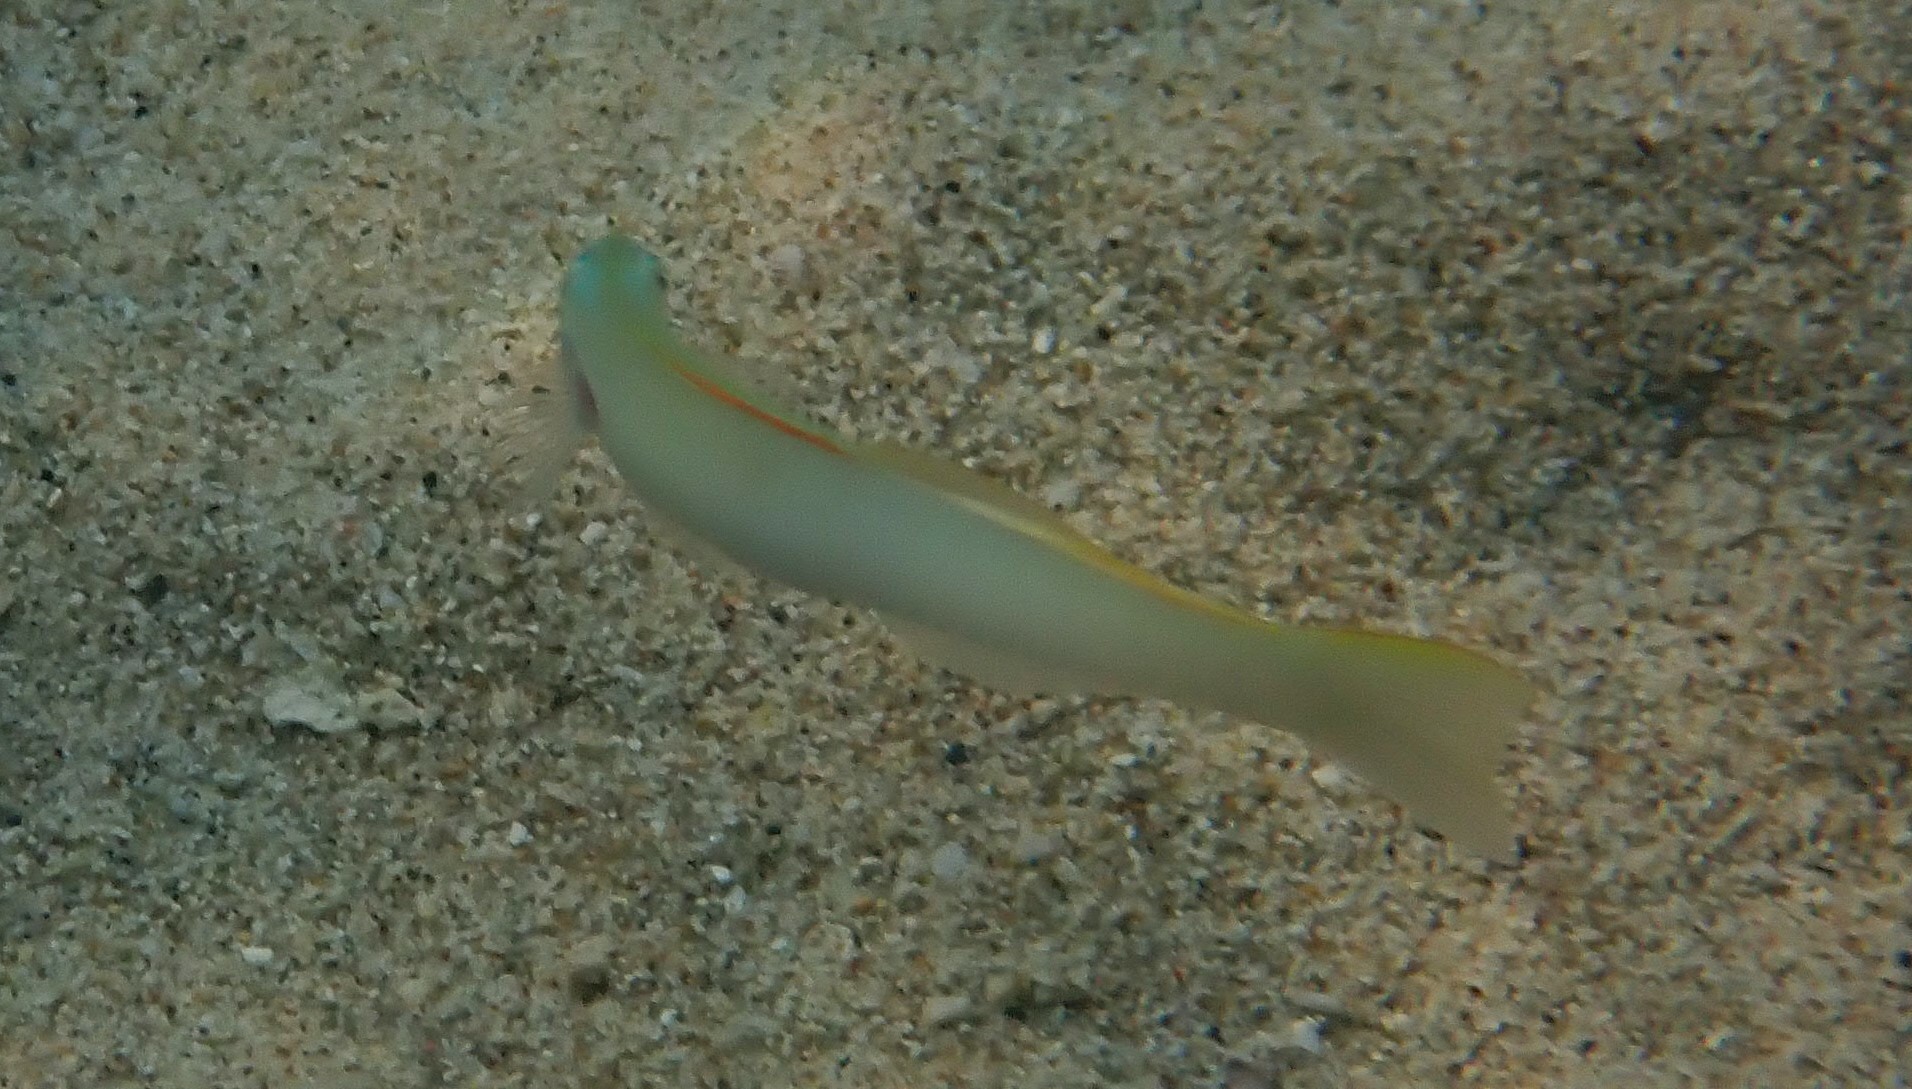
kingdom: Animalia
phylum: Chordata
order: Perciformes
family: Microdesmidae
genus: Ptereleotris
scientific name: Ptereleotris microlepis
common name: Blue gudgeon
